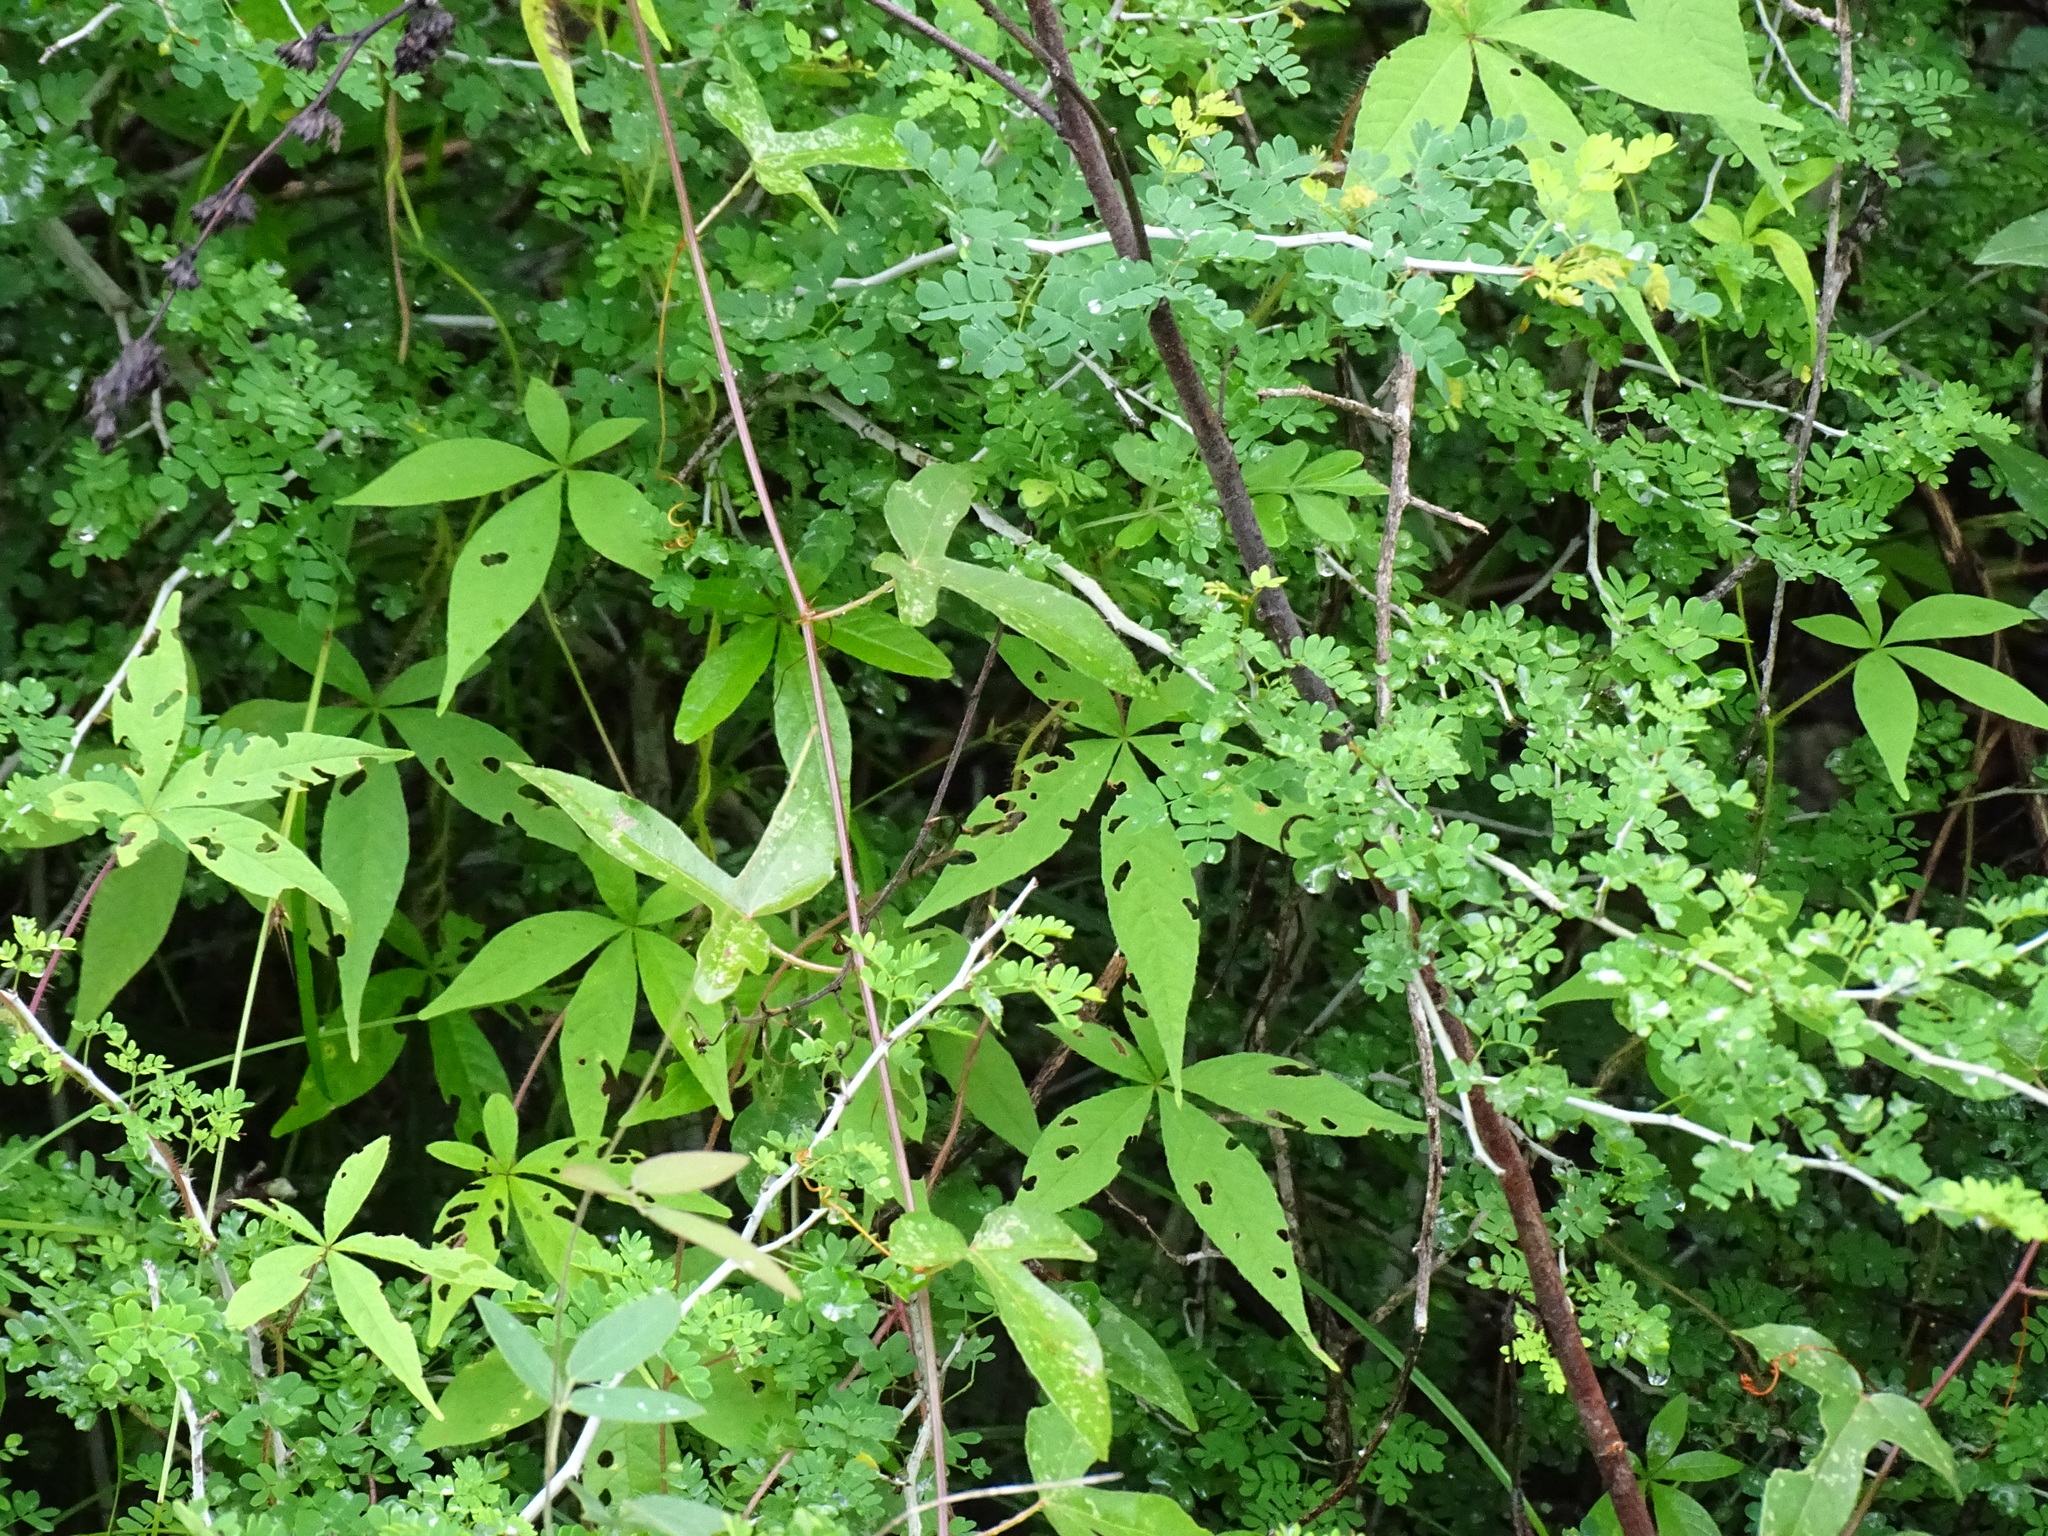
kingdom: Plantae
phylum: Tracheophyta
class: Magnoliopsida
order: Solanales
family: Convolvulaceae
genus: Distimake
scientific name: Distimake aegyptius
